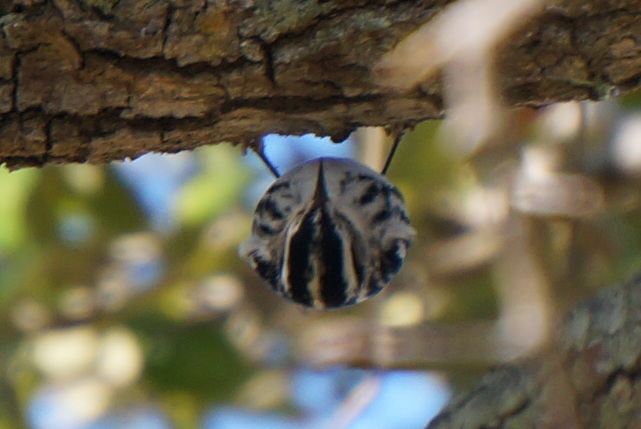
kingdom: Animalia
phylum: Chordata
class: Aves
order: Passeriformes
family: Parulidae
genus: Mniotilta
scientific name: Mniotilta varia
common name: Black-and-white warbler
